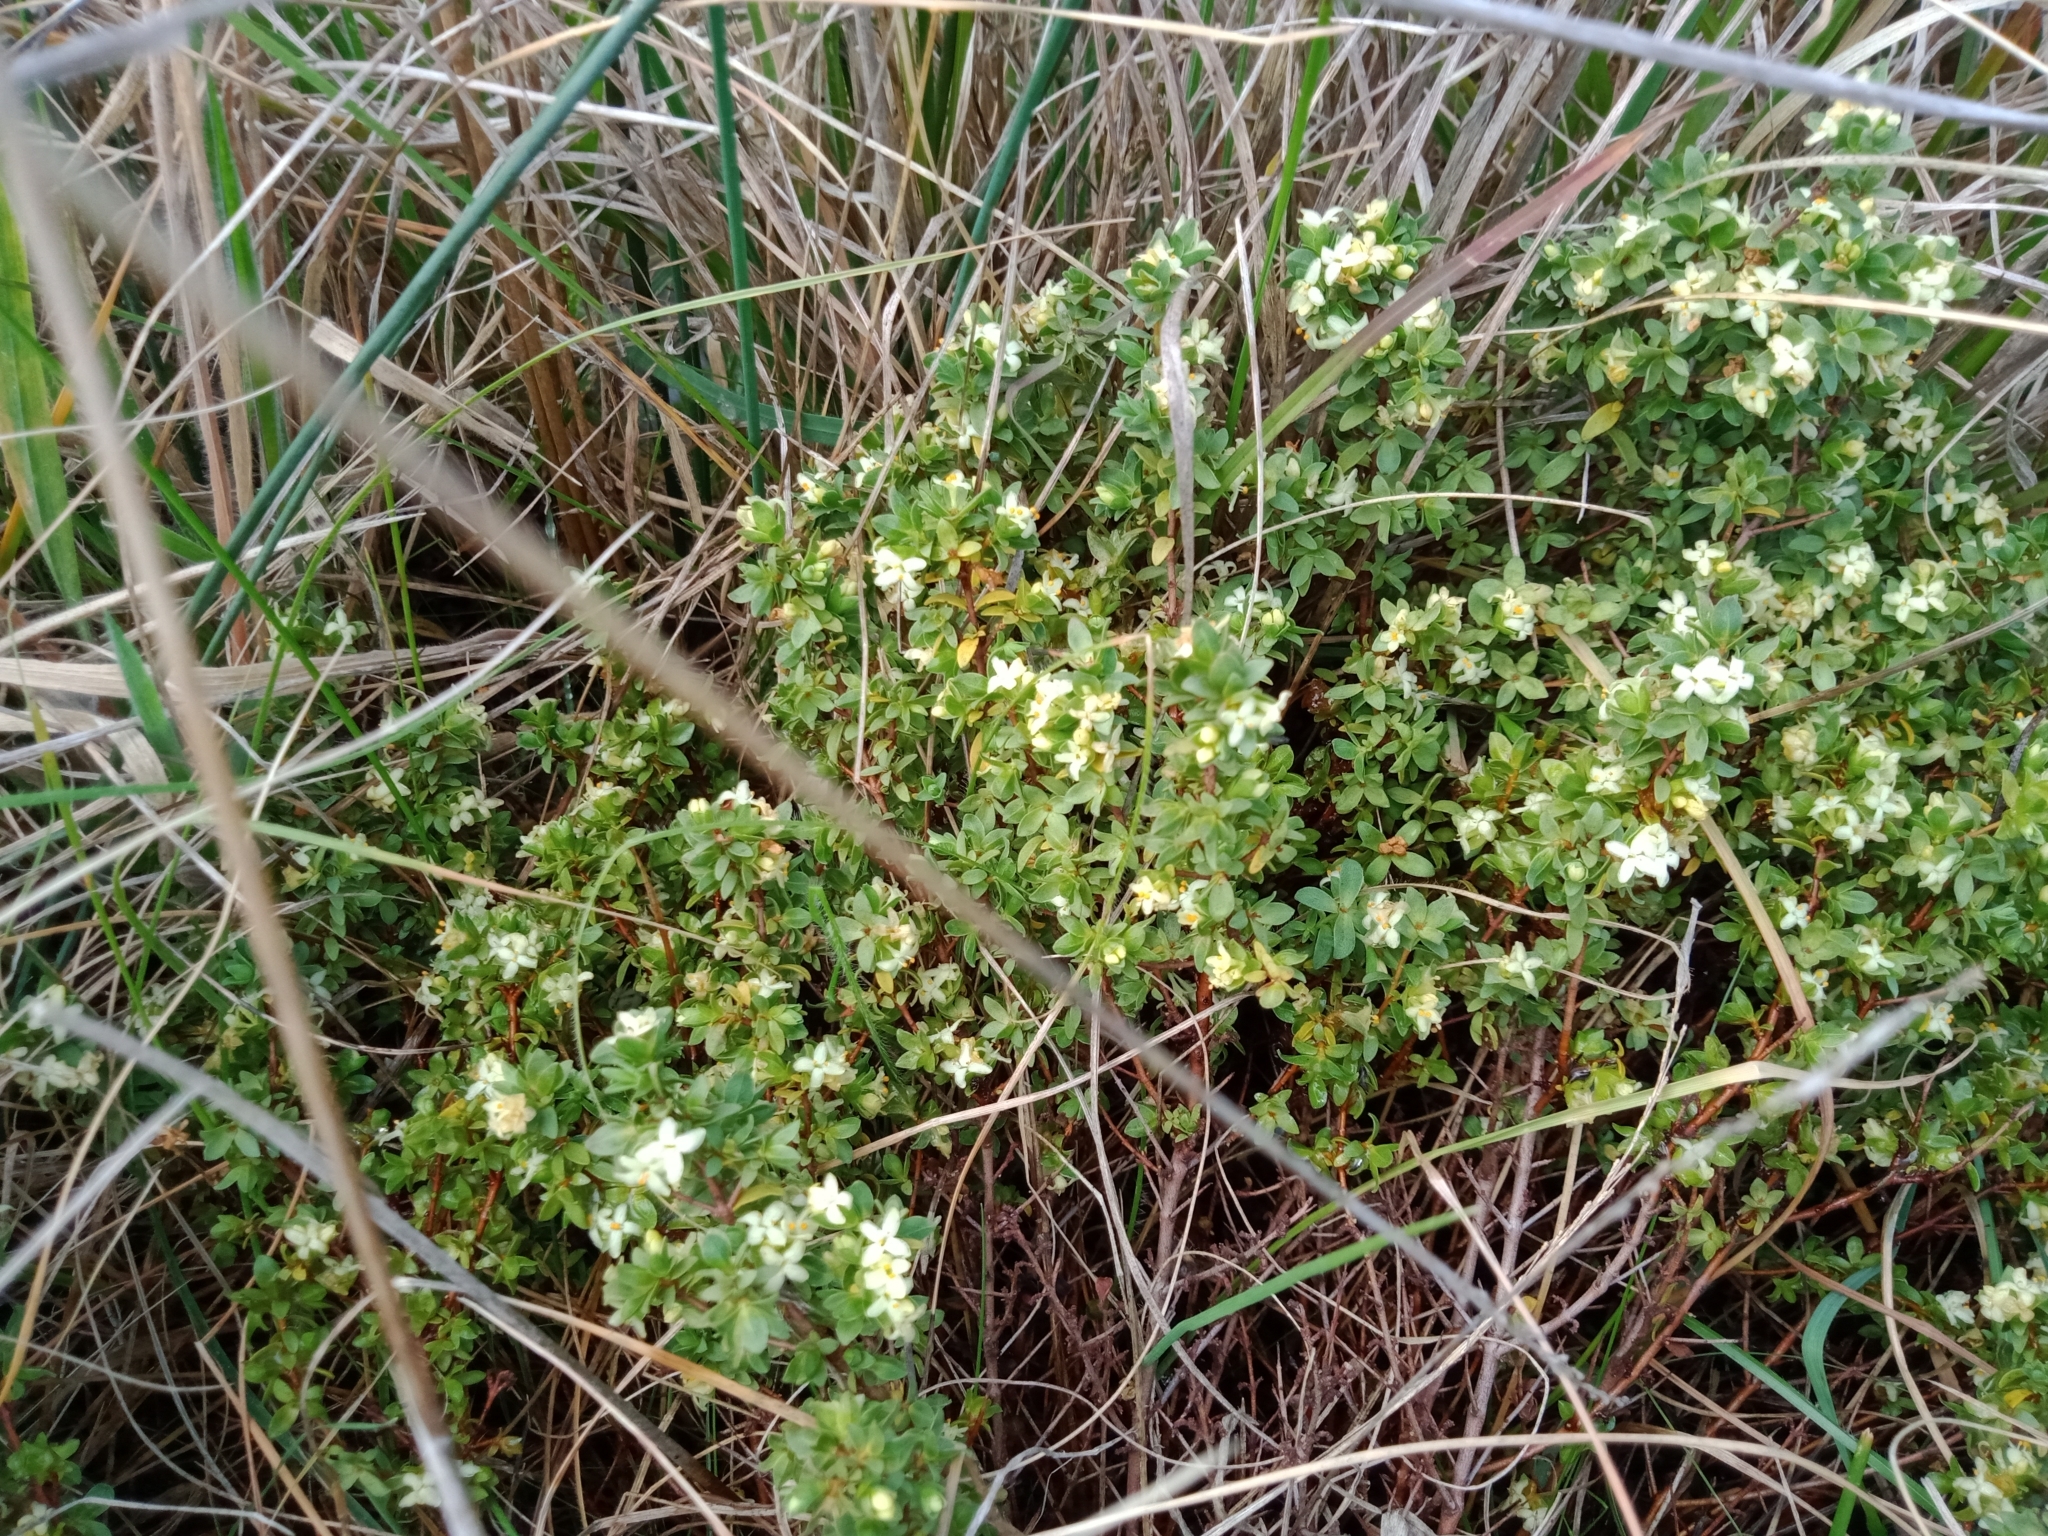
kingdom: Plantae
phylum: Tracheophyta
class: Magnoliopsida
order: Malvales
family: Thymelaeaceae
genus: Pimelea
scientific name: Pimelea spinescens
